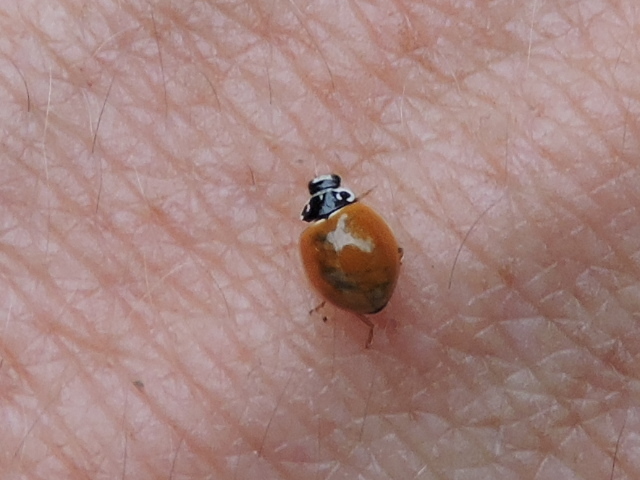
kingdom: Animalia
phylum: Arthropoda
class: Insecta
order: Coleoptera
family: Coccinellidae
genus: Cycloneda
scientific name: Cycloneda munda
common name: Polished lady beetle
